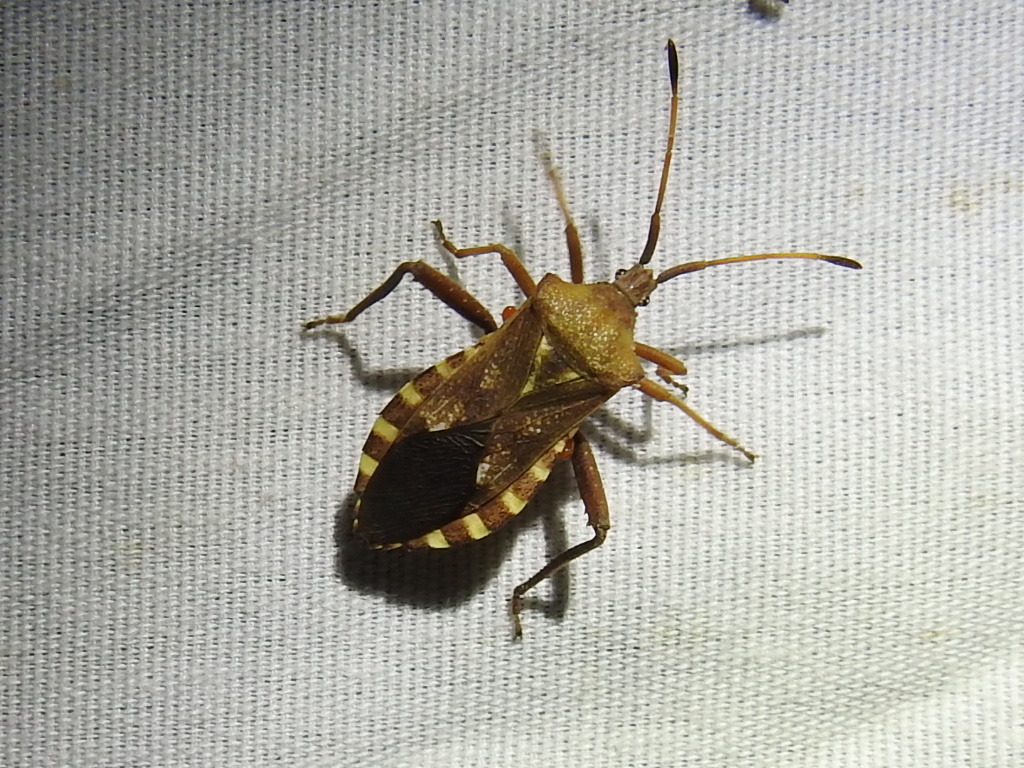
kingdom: Animalia
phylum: Arthropoda
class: Insecta
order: Hemiptera
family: Coreidae
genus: Mozena
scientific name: Mozena obtusa
